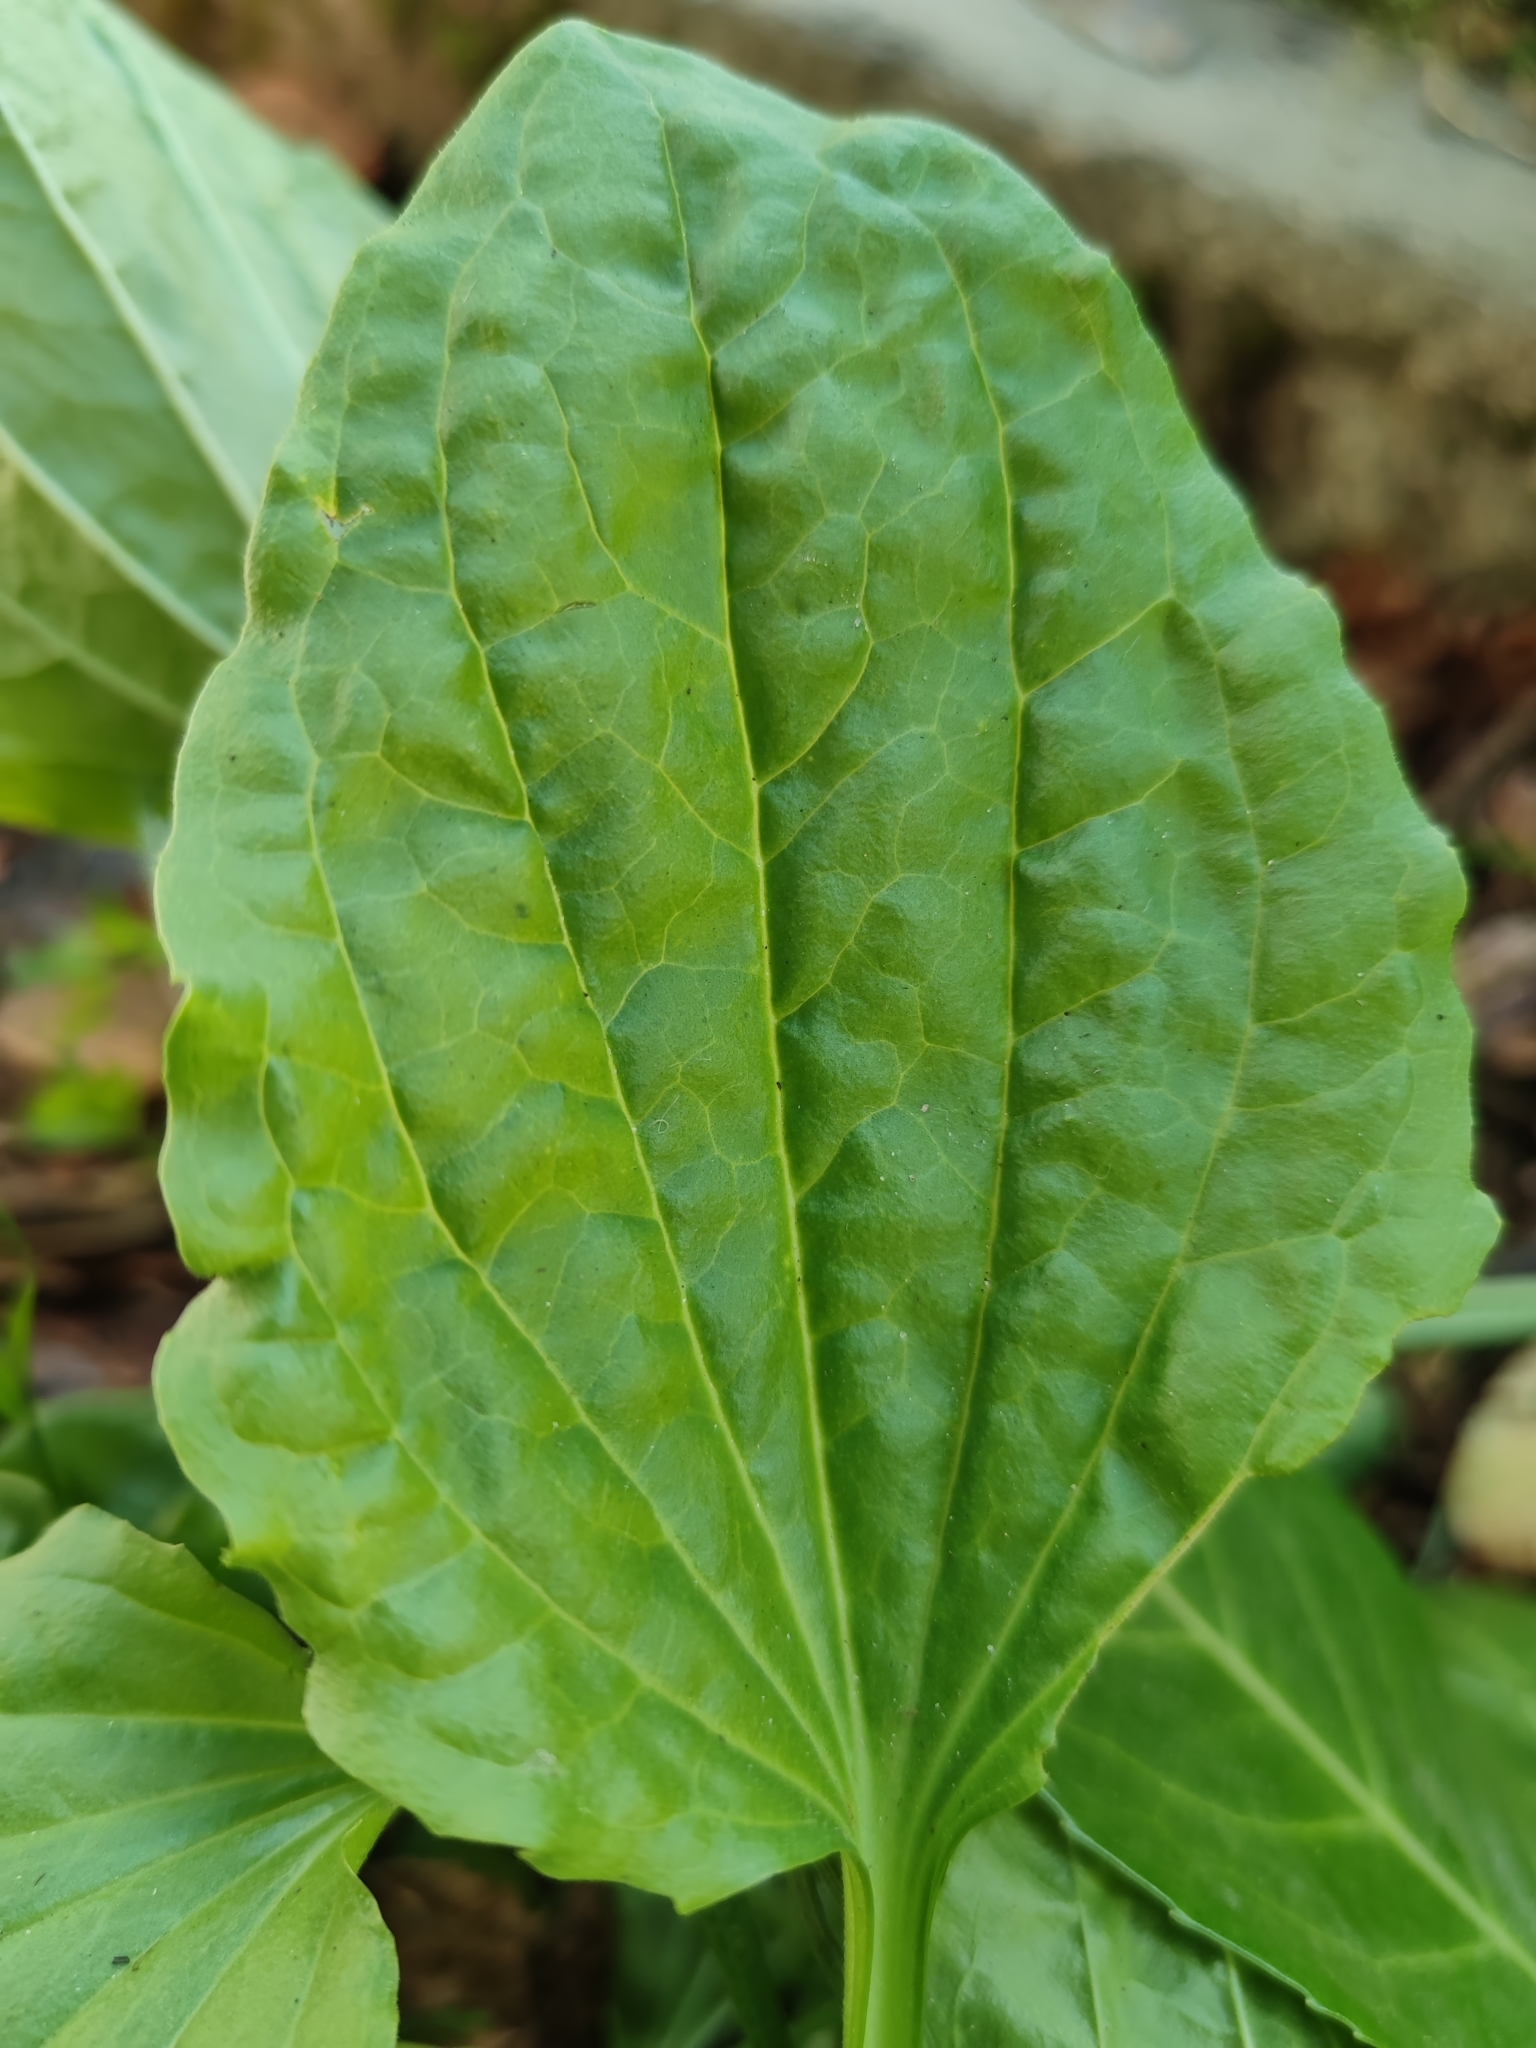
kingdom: Plantae
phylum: Tracheophyta
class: Magnoliopsida
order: Lamiales
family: Plantaginaceae
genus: Plantago
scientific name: Plantago major
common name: Common plantain
